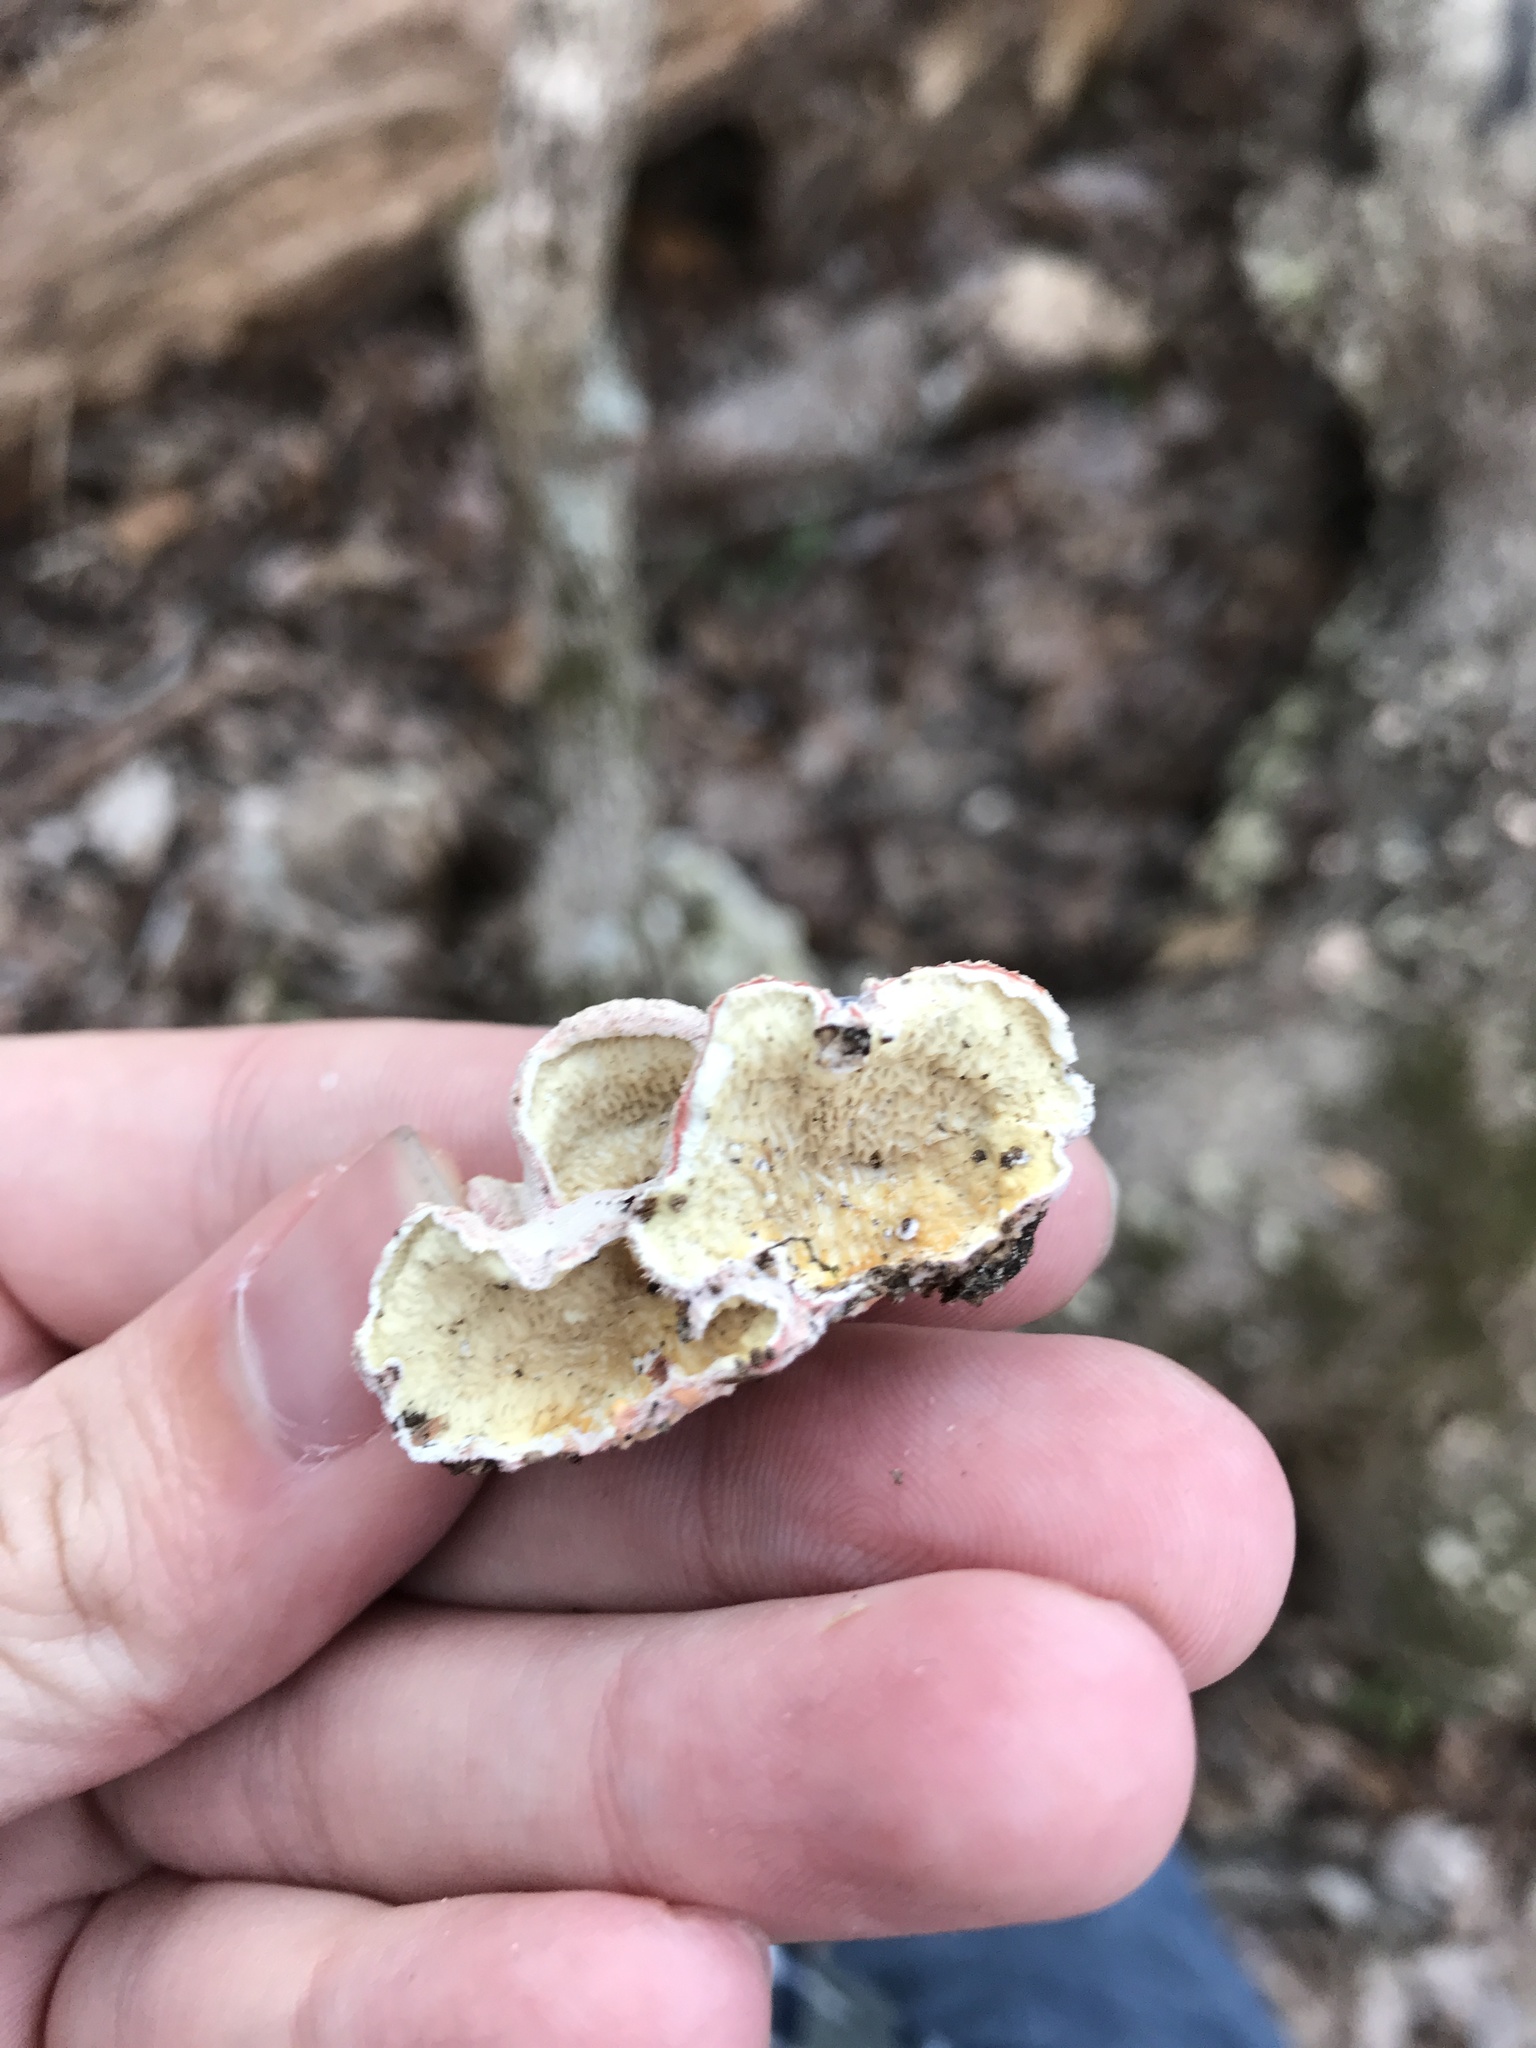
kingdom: Fungi
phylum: Basidiomycota
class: Agaricomycetes
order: Polyporales
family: Irpicaceae
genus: Byssomerulius
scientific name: Byssomerulius incarnatus
